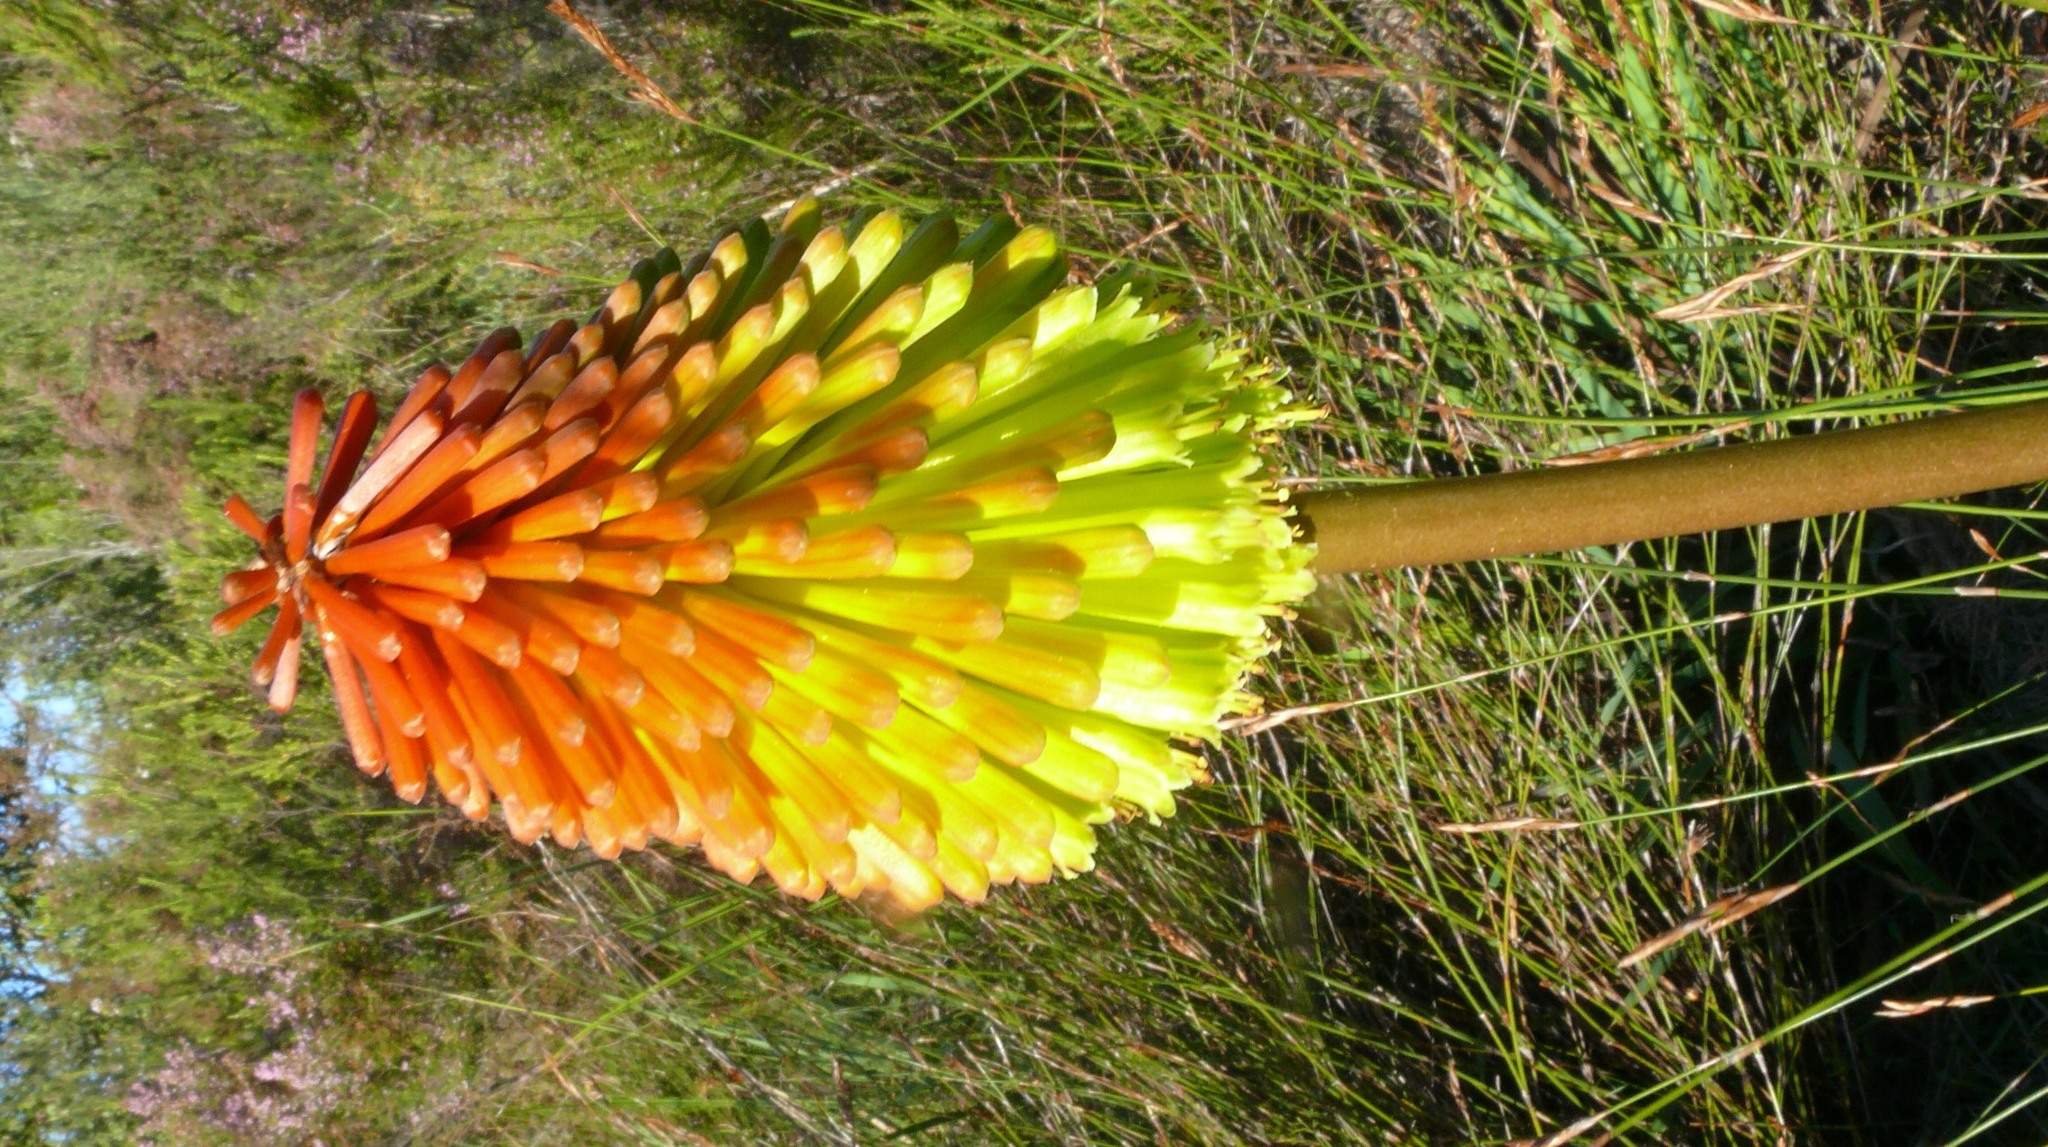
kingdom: Plantae
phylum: Tracheophyta
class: Liliopsida
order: Asparagales
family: Asphodelaceae
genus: Kniphofia
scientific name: Kniphofia uvaria
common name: Red-hot-poker
